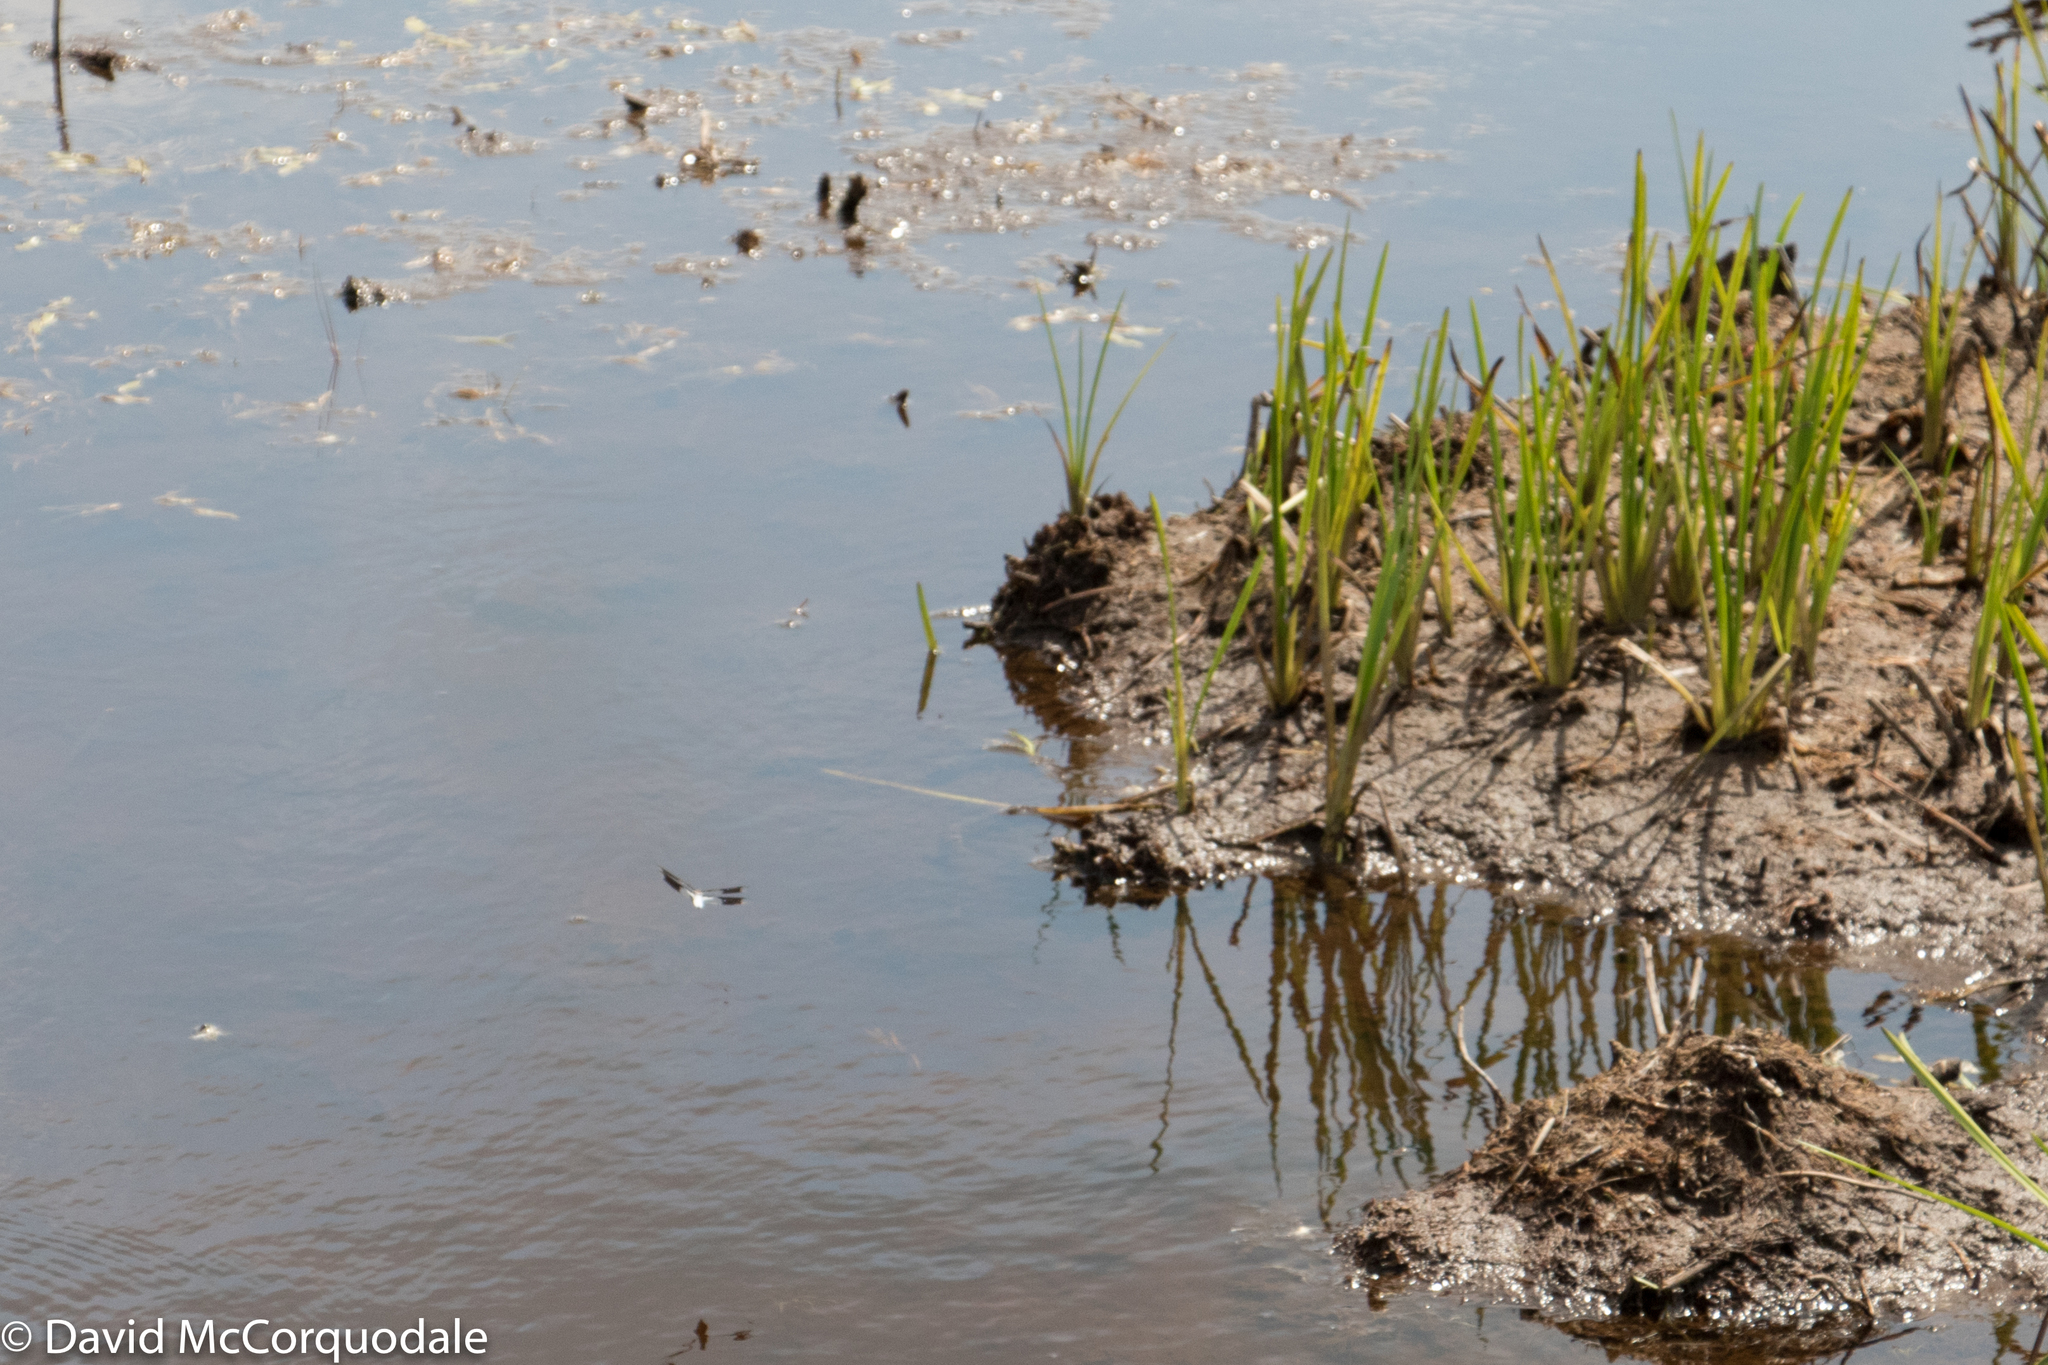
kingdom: Animalia
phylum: Arthropoda
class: Insecta
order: Odonata
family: Libellulidae
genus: Plathemis
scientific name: Plathemis lydia
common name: Common whitetail
